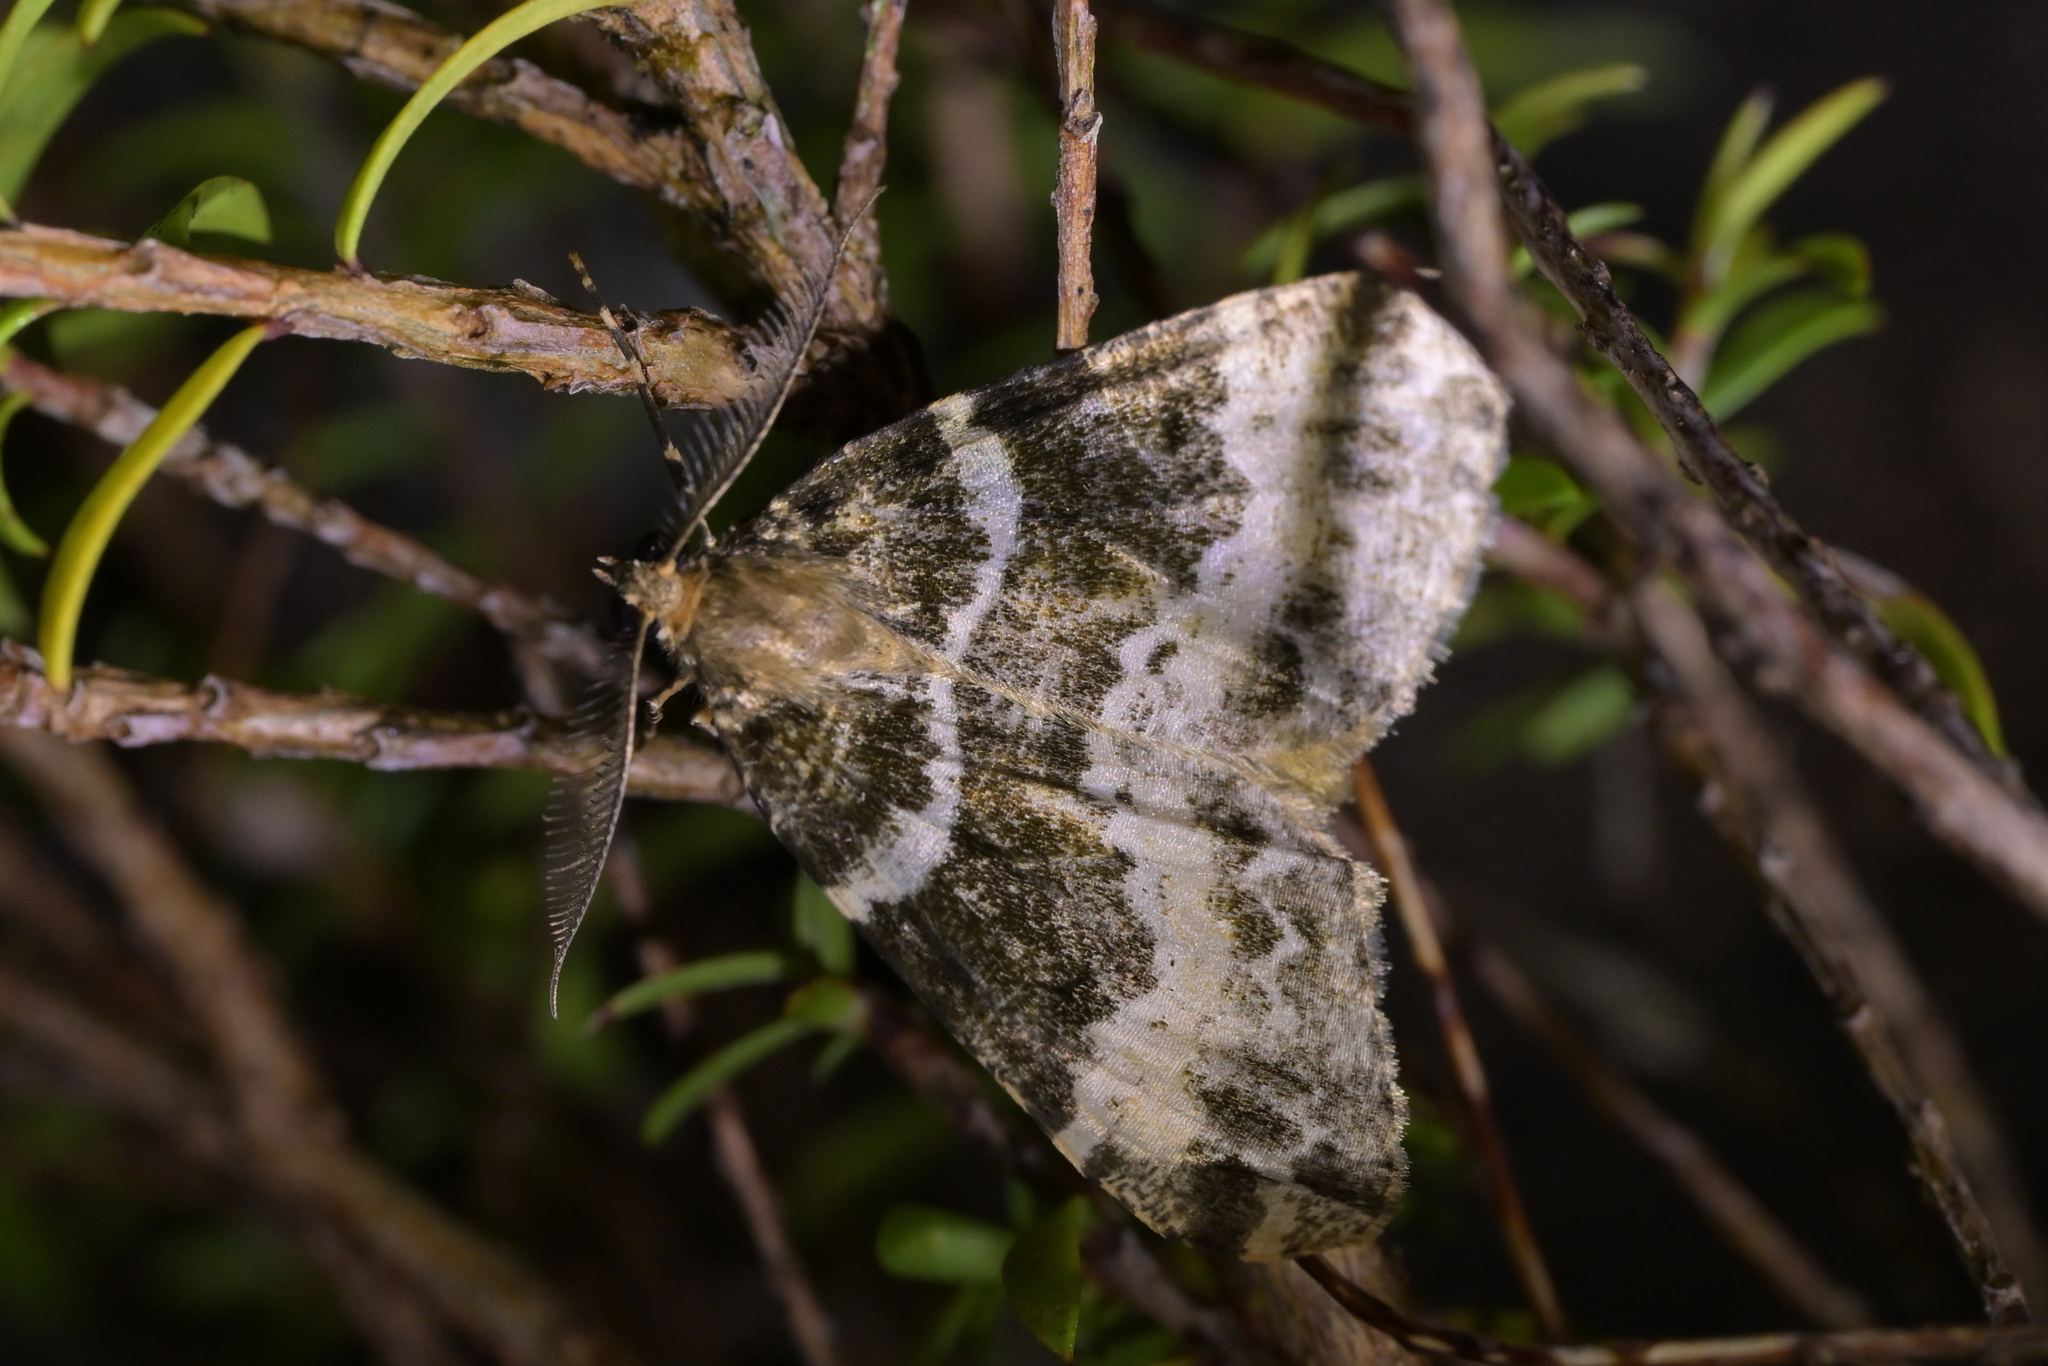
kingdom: Animalia
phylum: Arthropoda
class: Insecta
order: Lepidoptera
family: Geometridae
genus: Pseudocoremia
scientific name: Pseudocoremia productata
